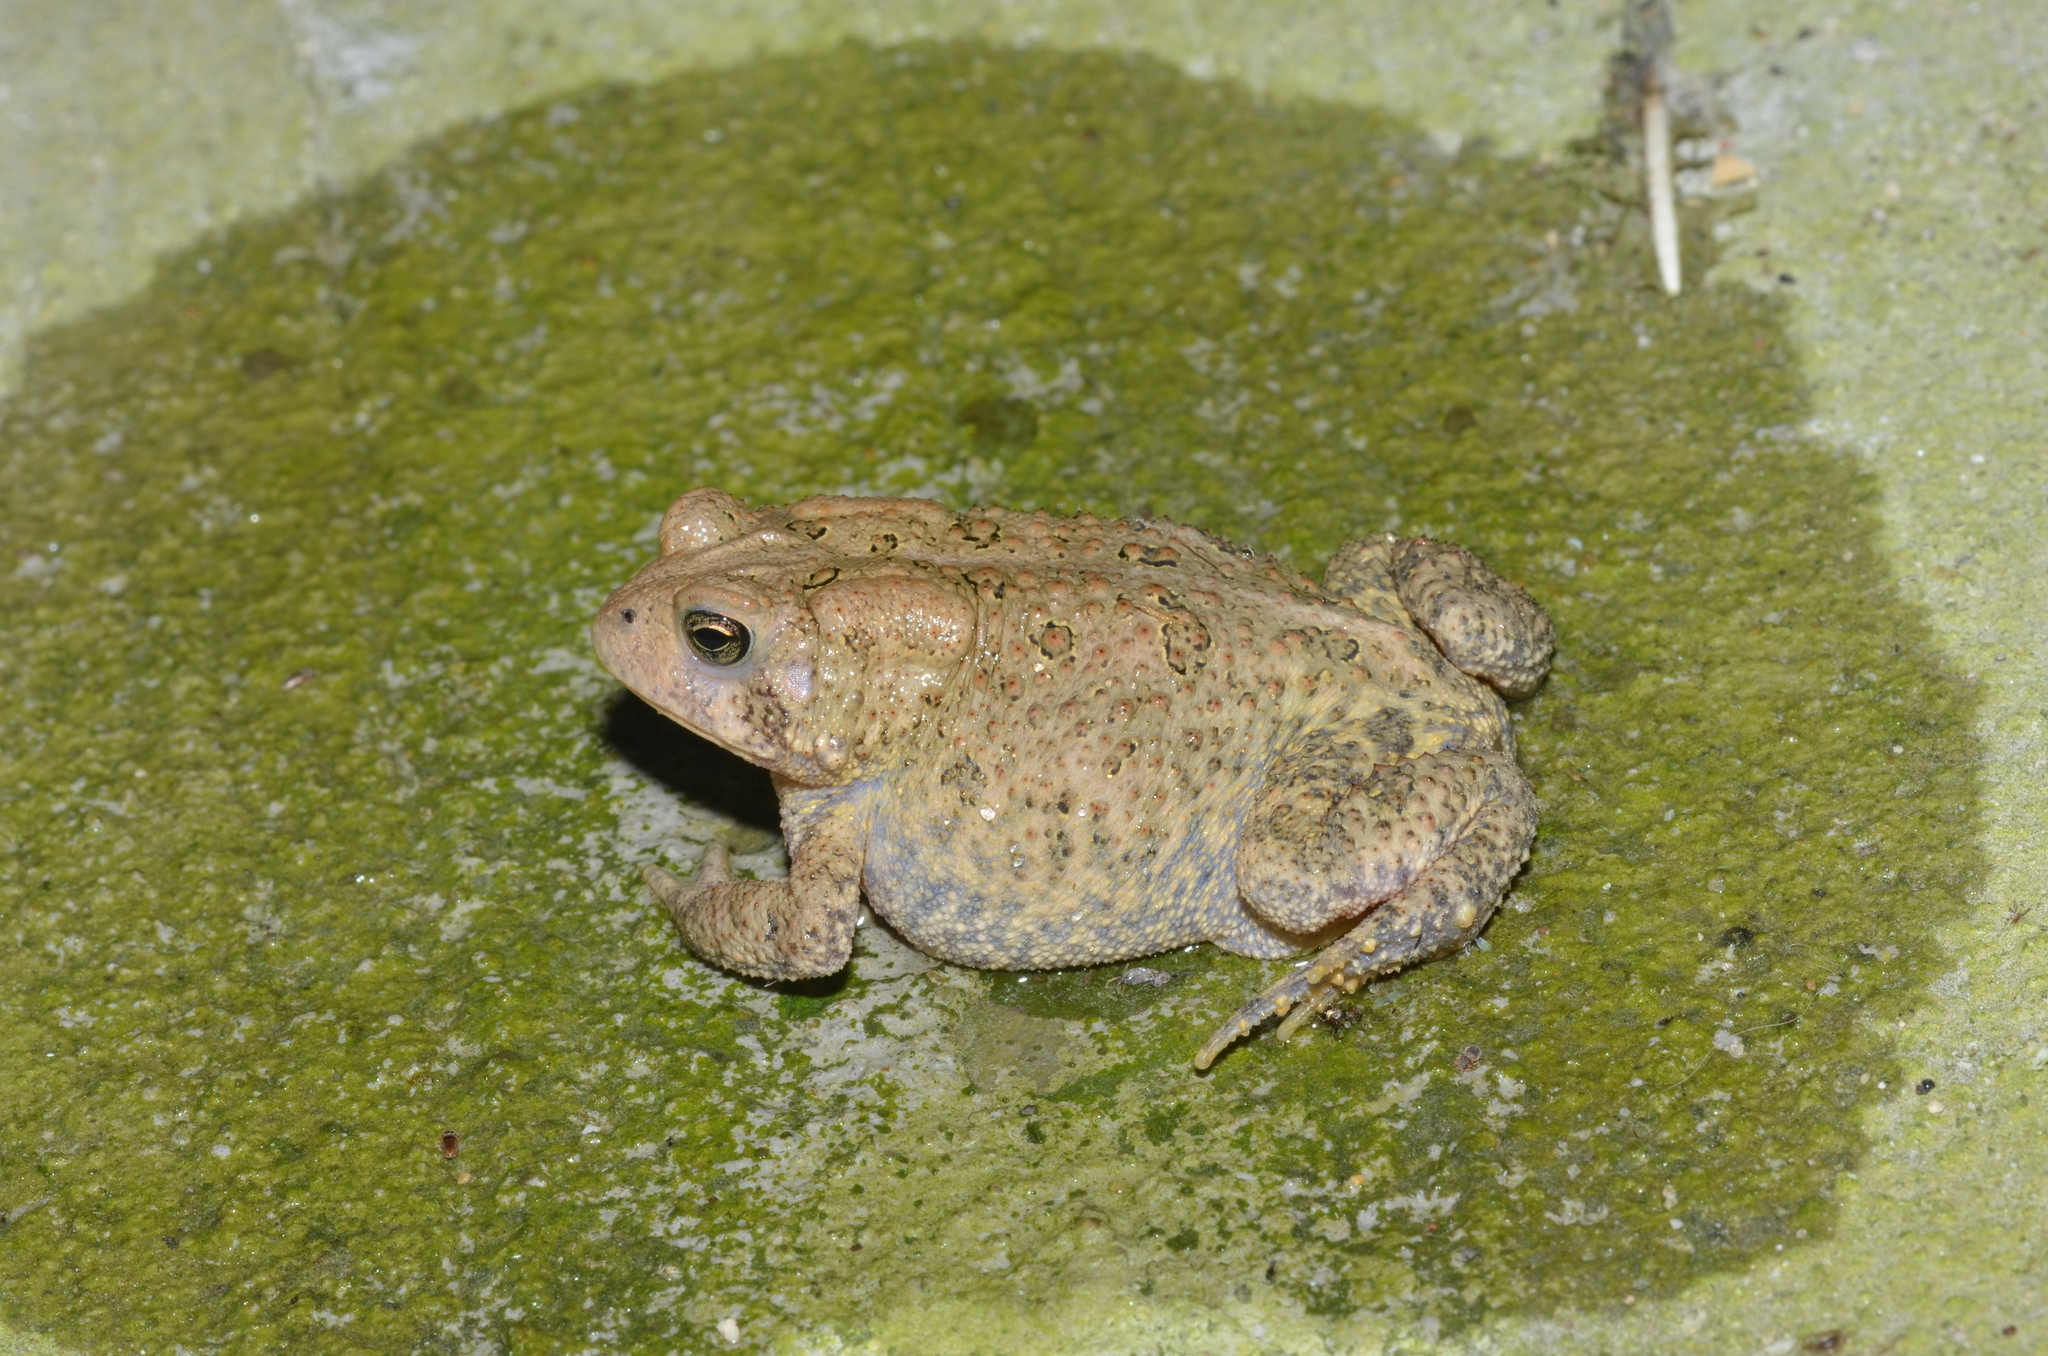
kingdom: Animalia
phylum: Chordata
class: Amphibia
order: Anura
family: Bufonidae
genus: Anaxyrus
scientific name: Anaxyrus americanus
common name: American toad
